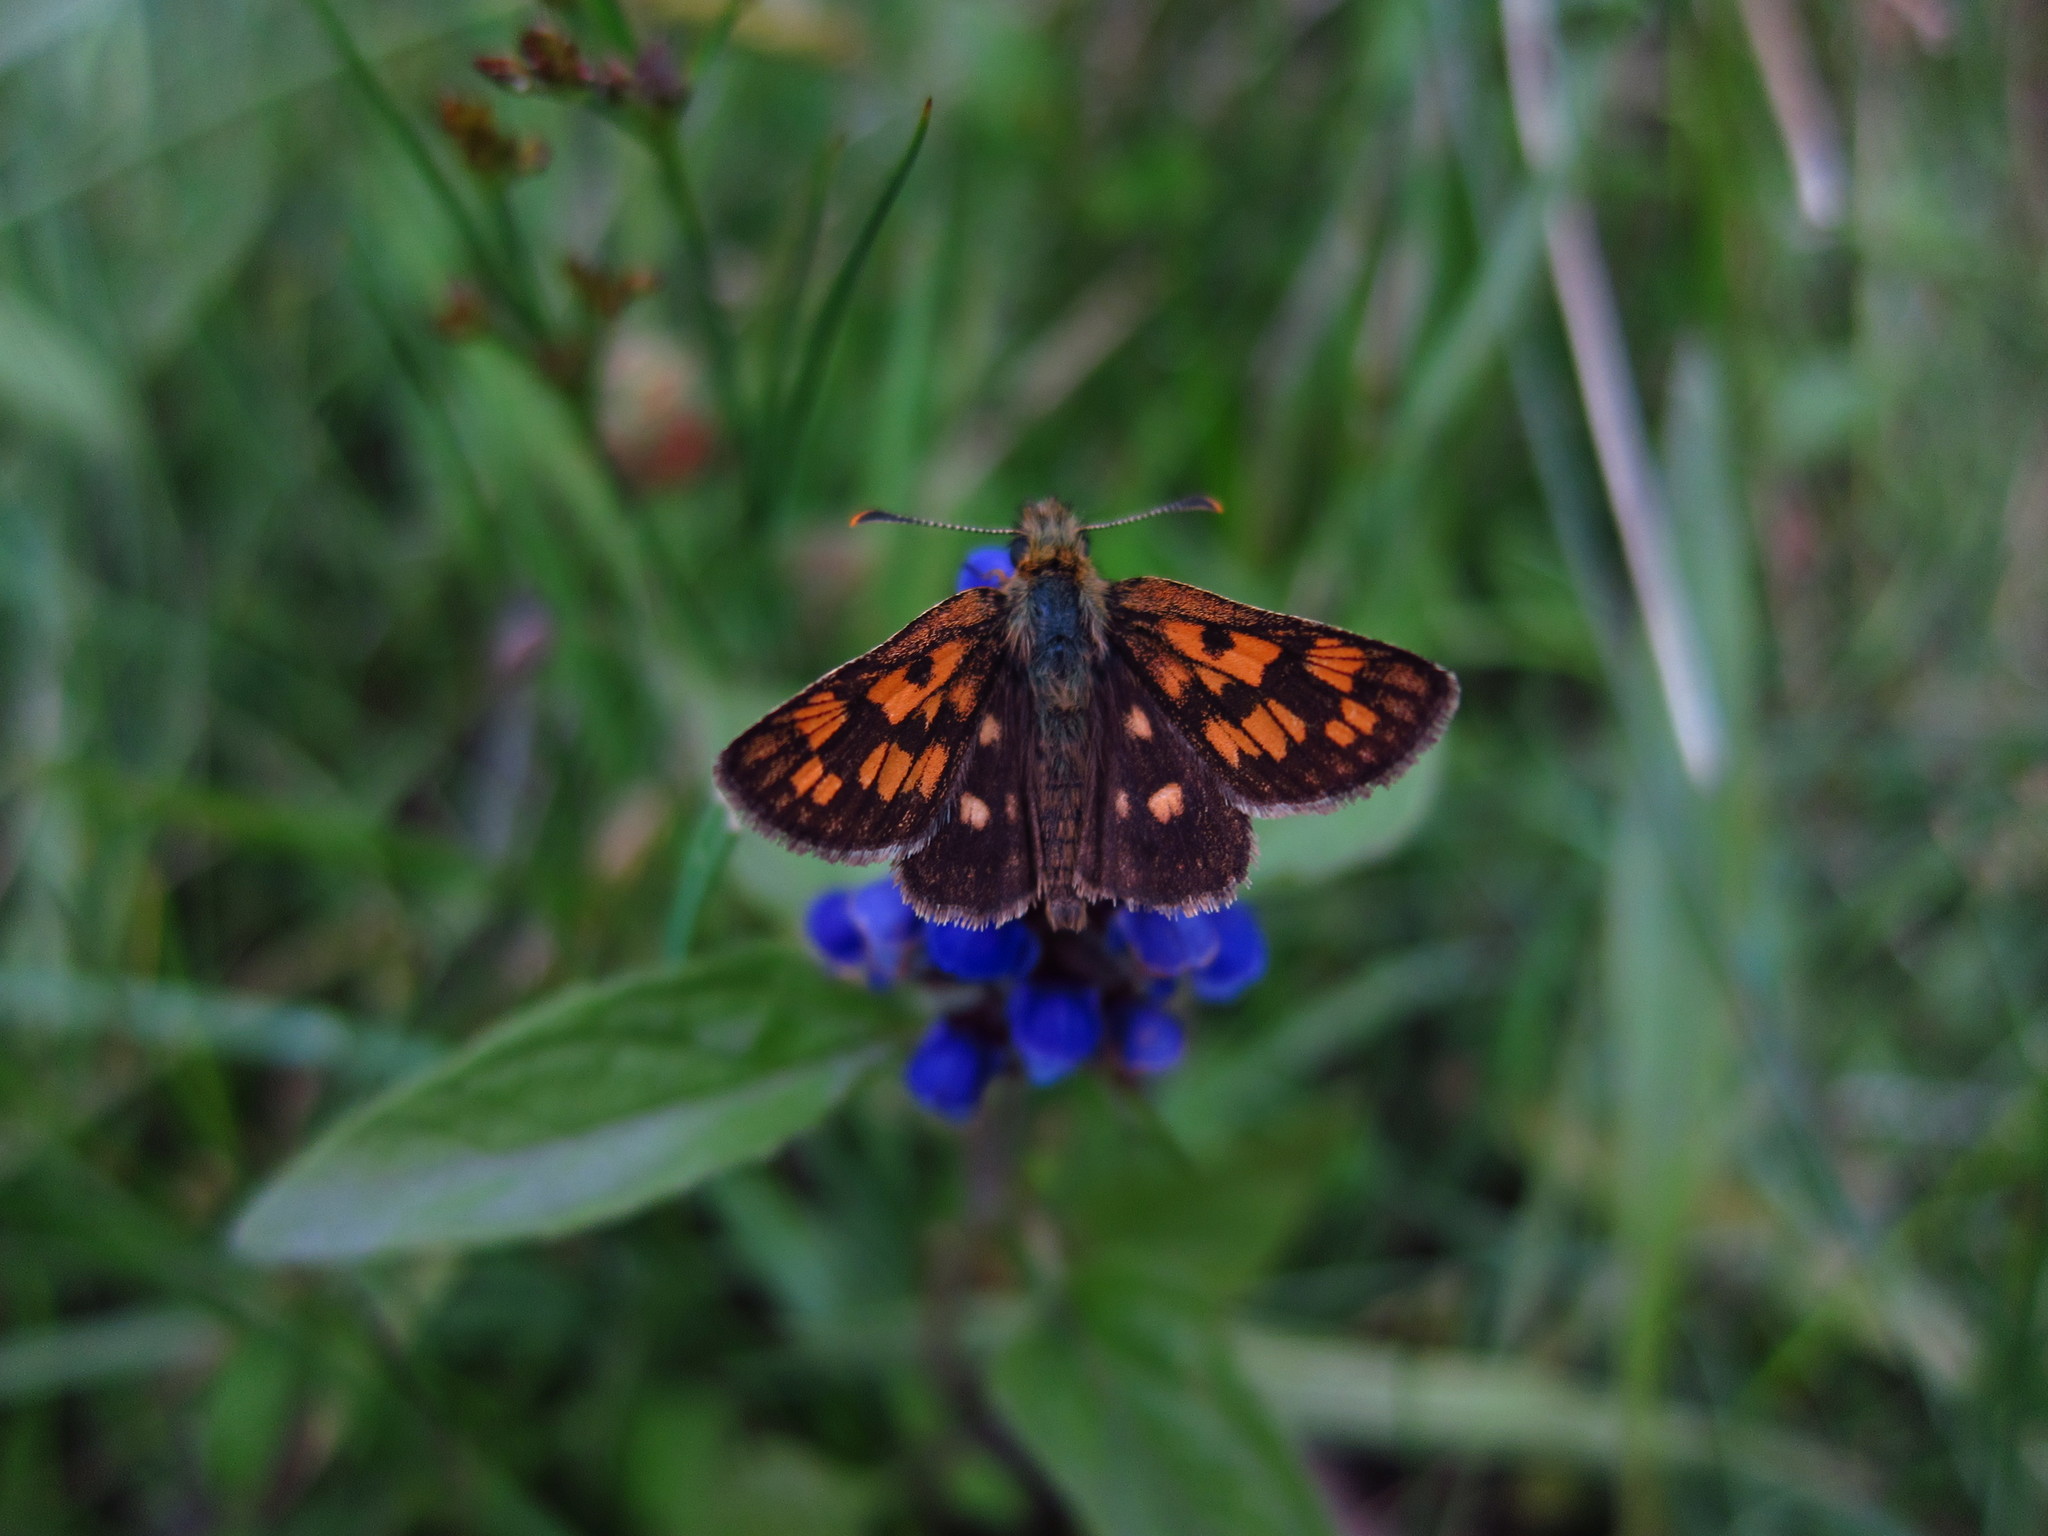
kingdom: Animalia
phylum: Arthropoda
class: Insecta
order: Lepidoptera
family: Hesperiidae
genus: Carterocephalus
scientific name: Carterocephalus palaemon
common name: Chequered skipper
